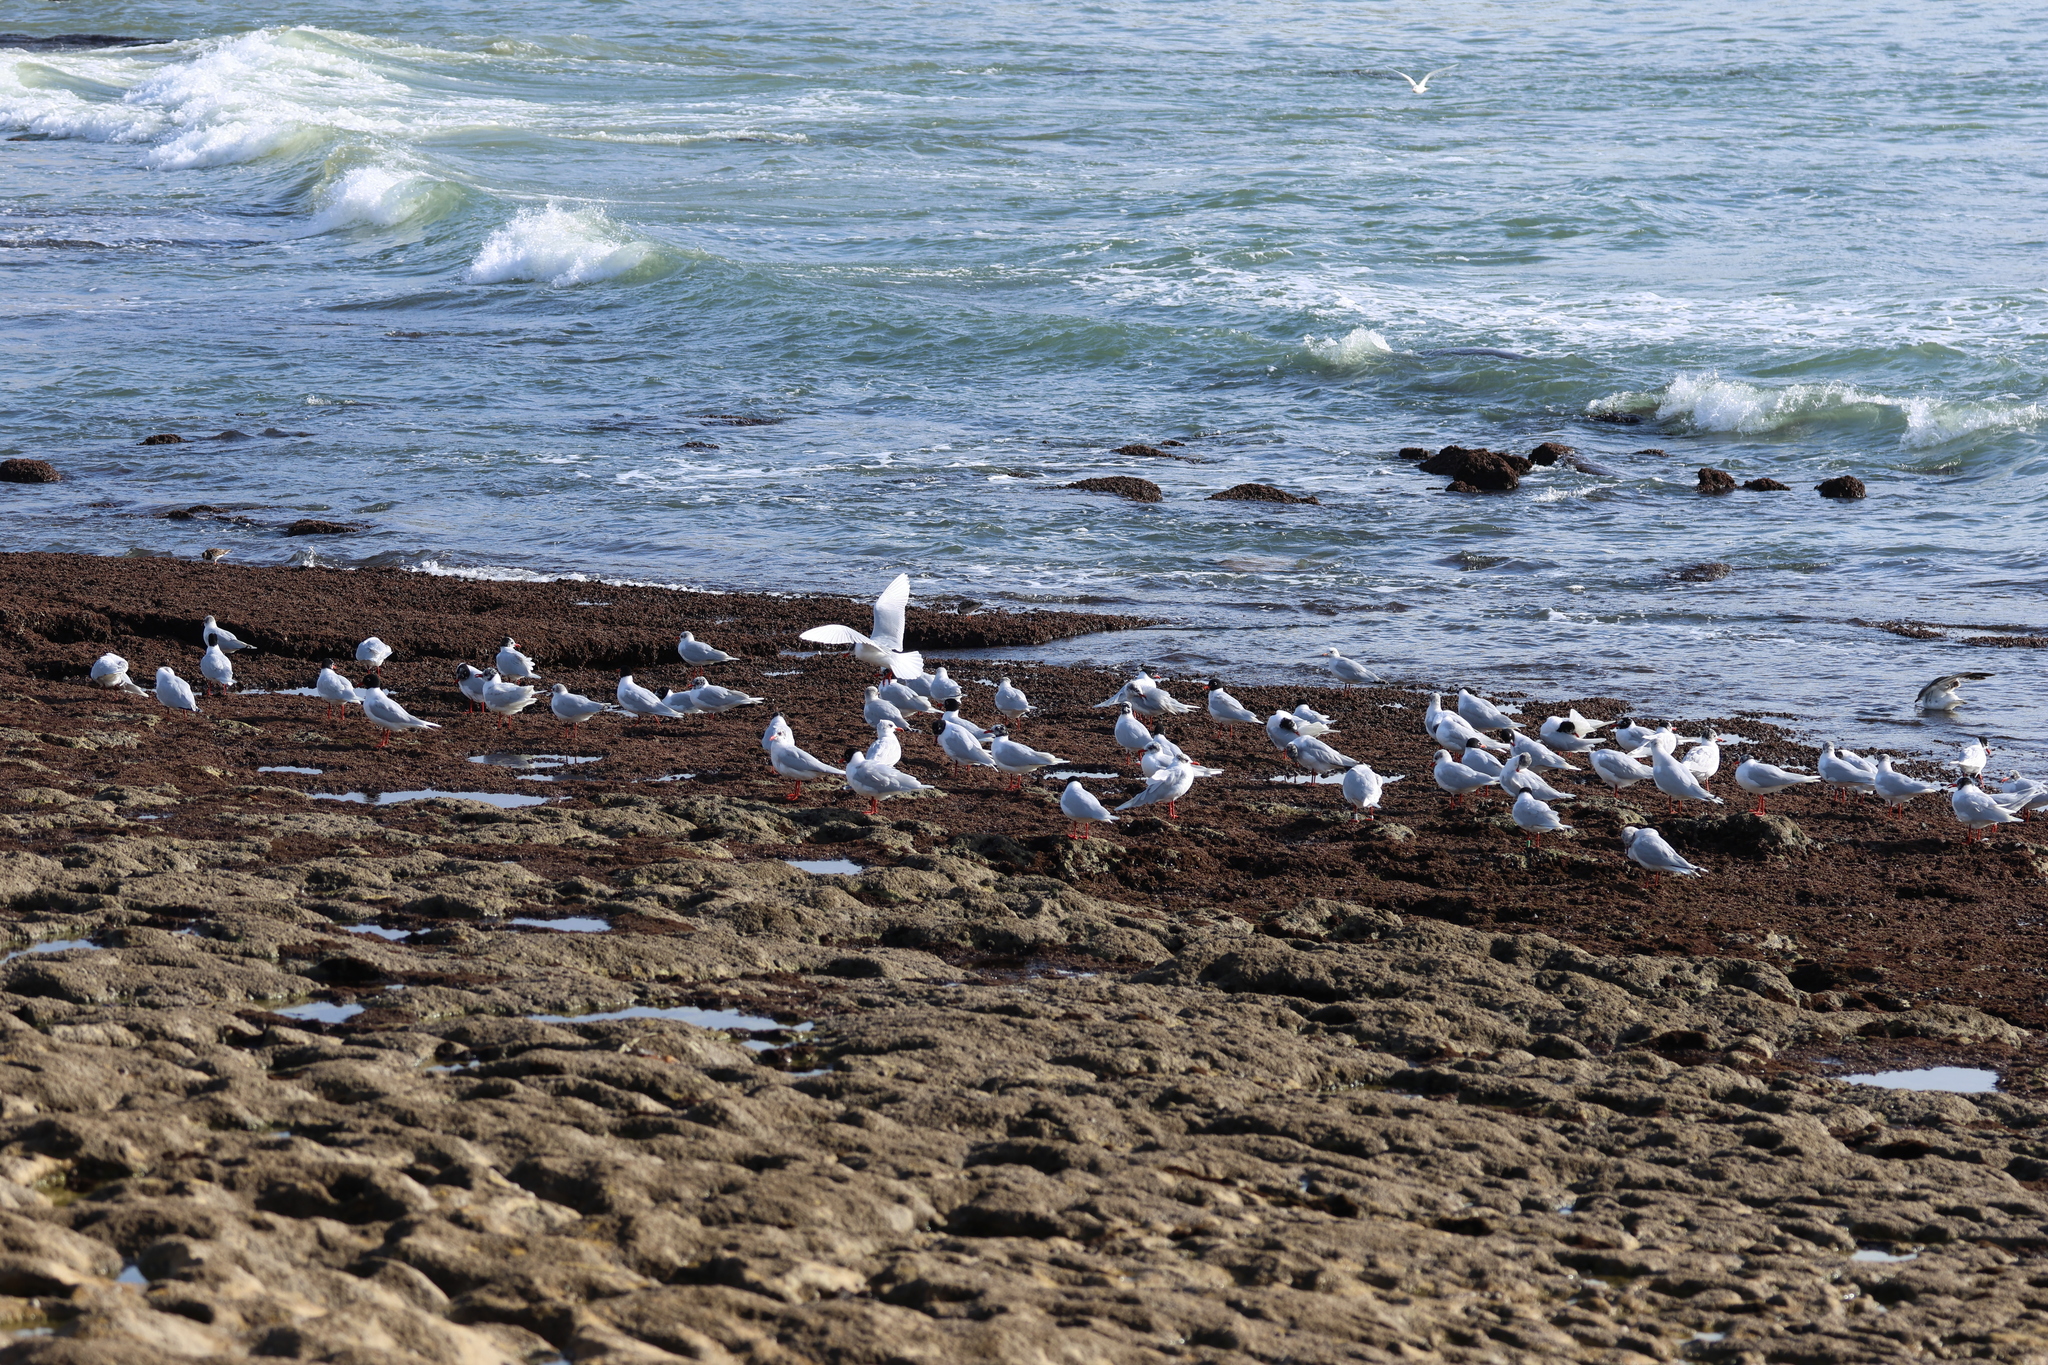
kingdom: Animalia
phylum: Chordata
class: Aves
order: Charadriiformes
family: Laridae
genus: Ichthyaetus
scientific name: Ichthyaetus melanocephalus
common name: Mediterranean gull
